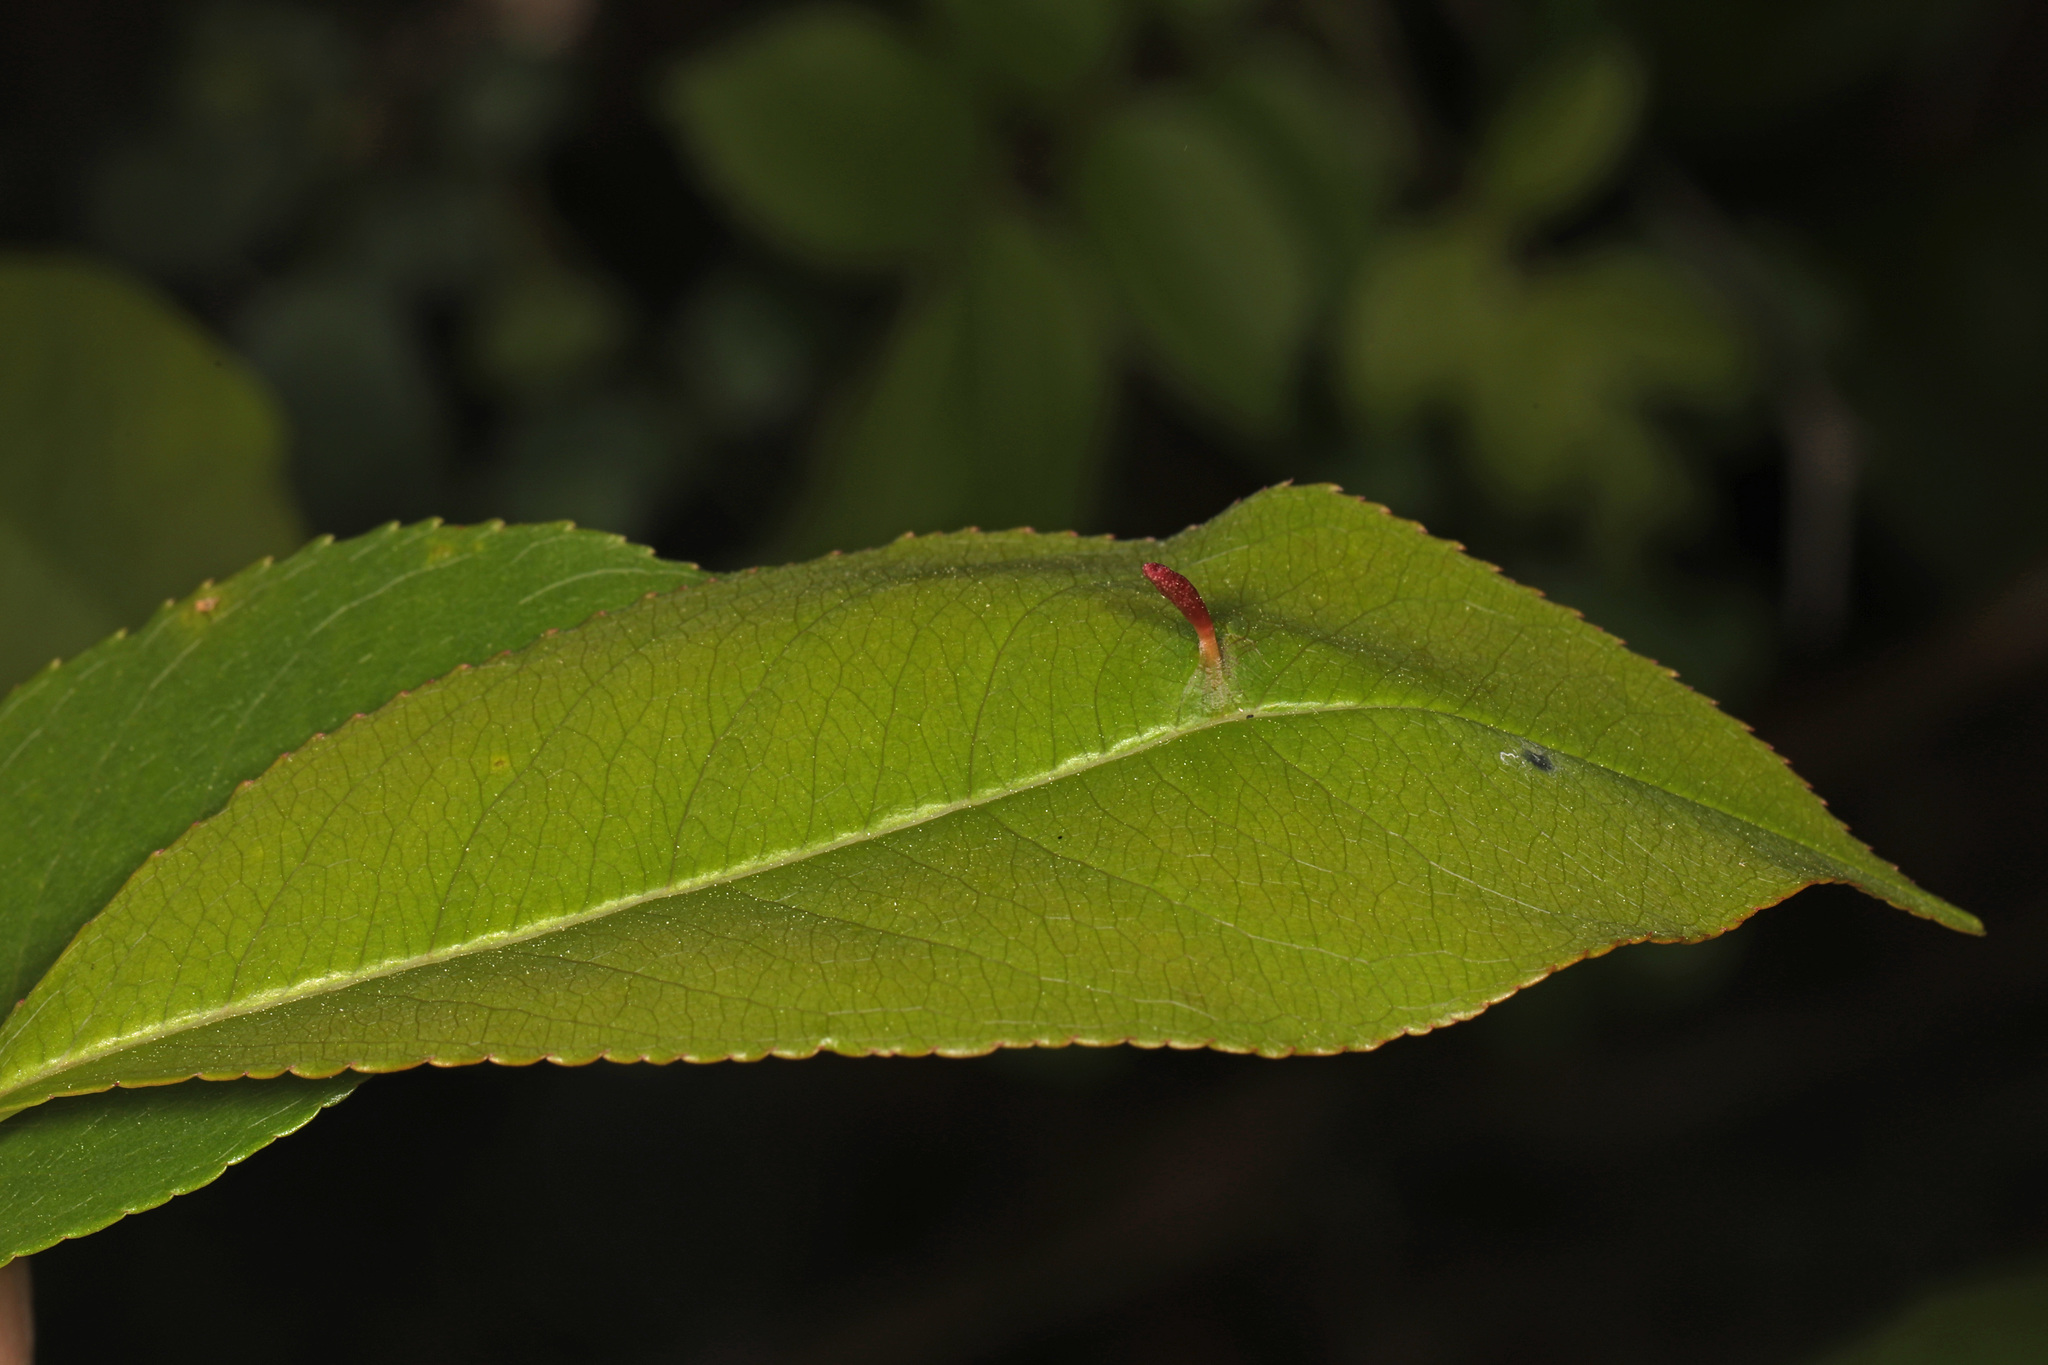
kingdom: Animalia
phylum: Arthropoda
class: Arachnida
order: Trombidiformes
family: Eriophyidae
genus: Eriophyes
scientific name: Eriophyes
